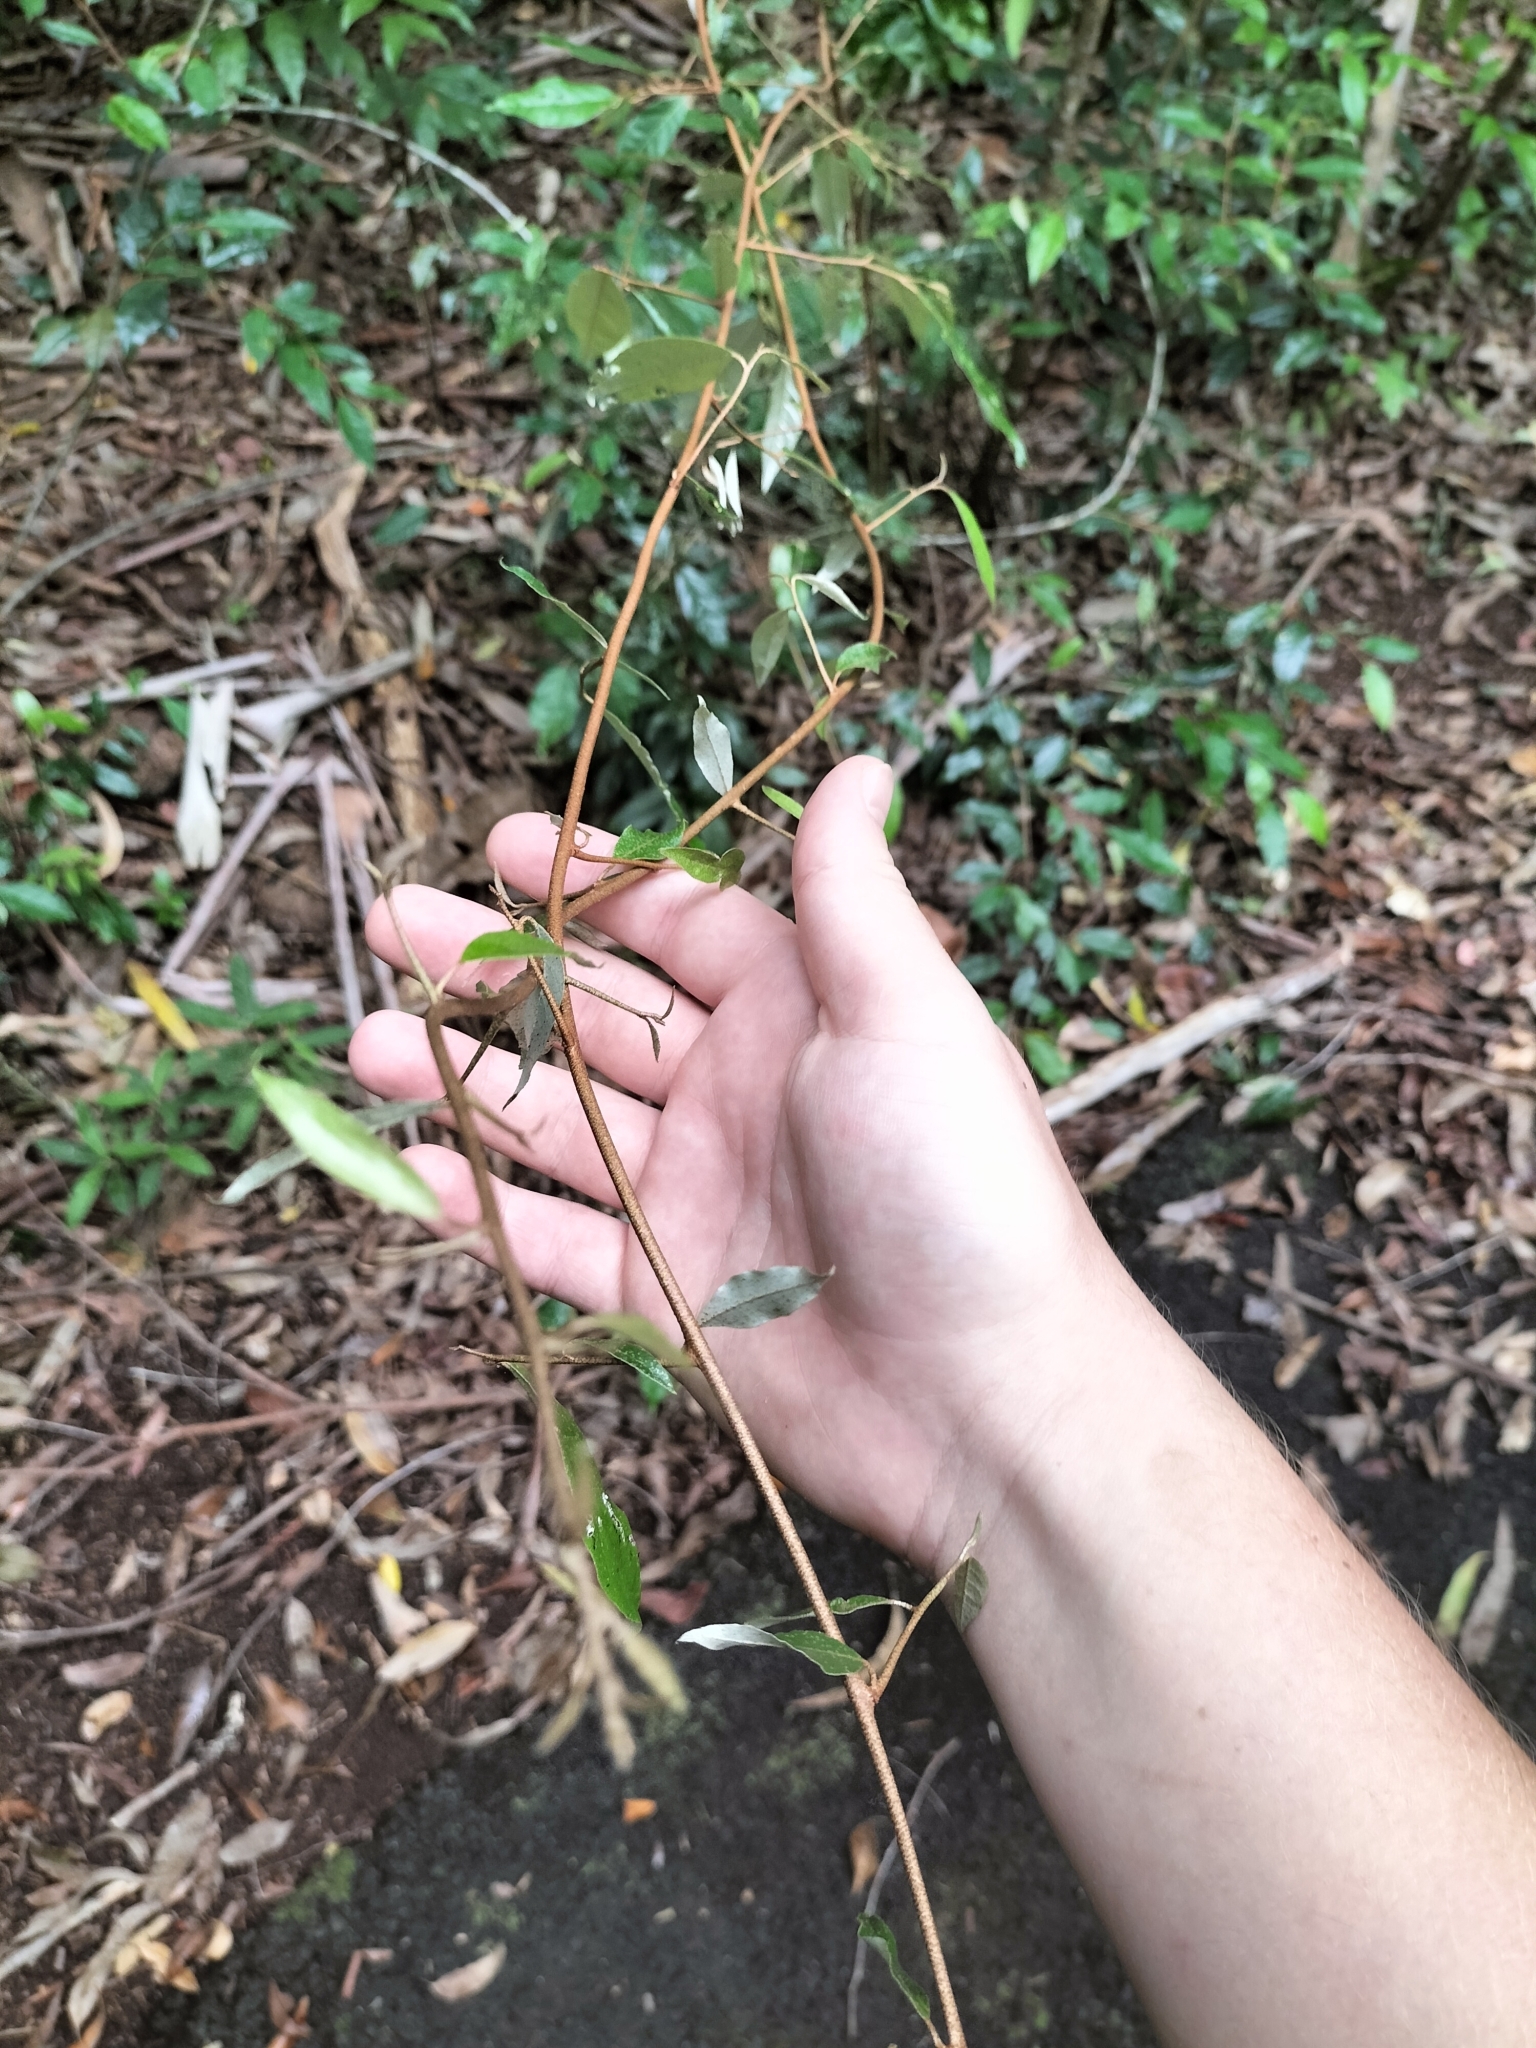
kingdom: Plantae
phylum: Tracheophyta
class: Magnoliopsida
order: Rosales
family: Elaeagnaceae
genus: Elaeagnus
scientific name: Elaeagnus triflora
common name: Millaa millaa-vine
